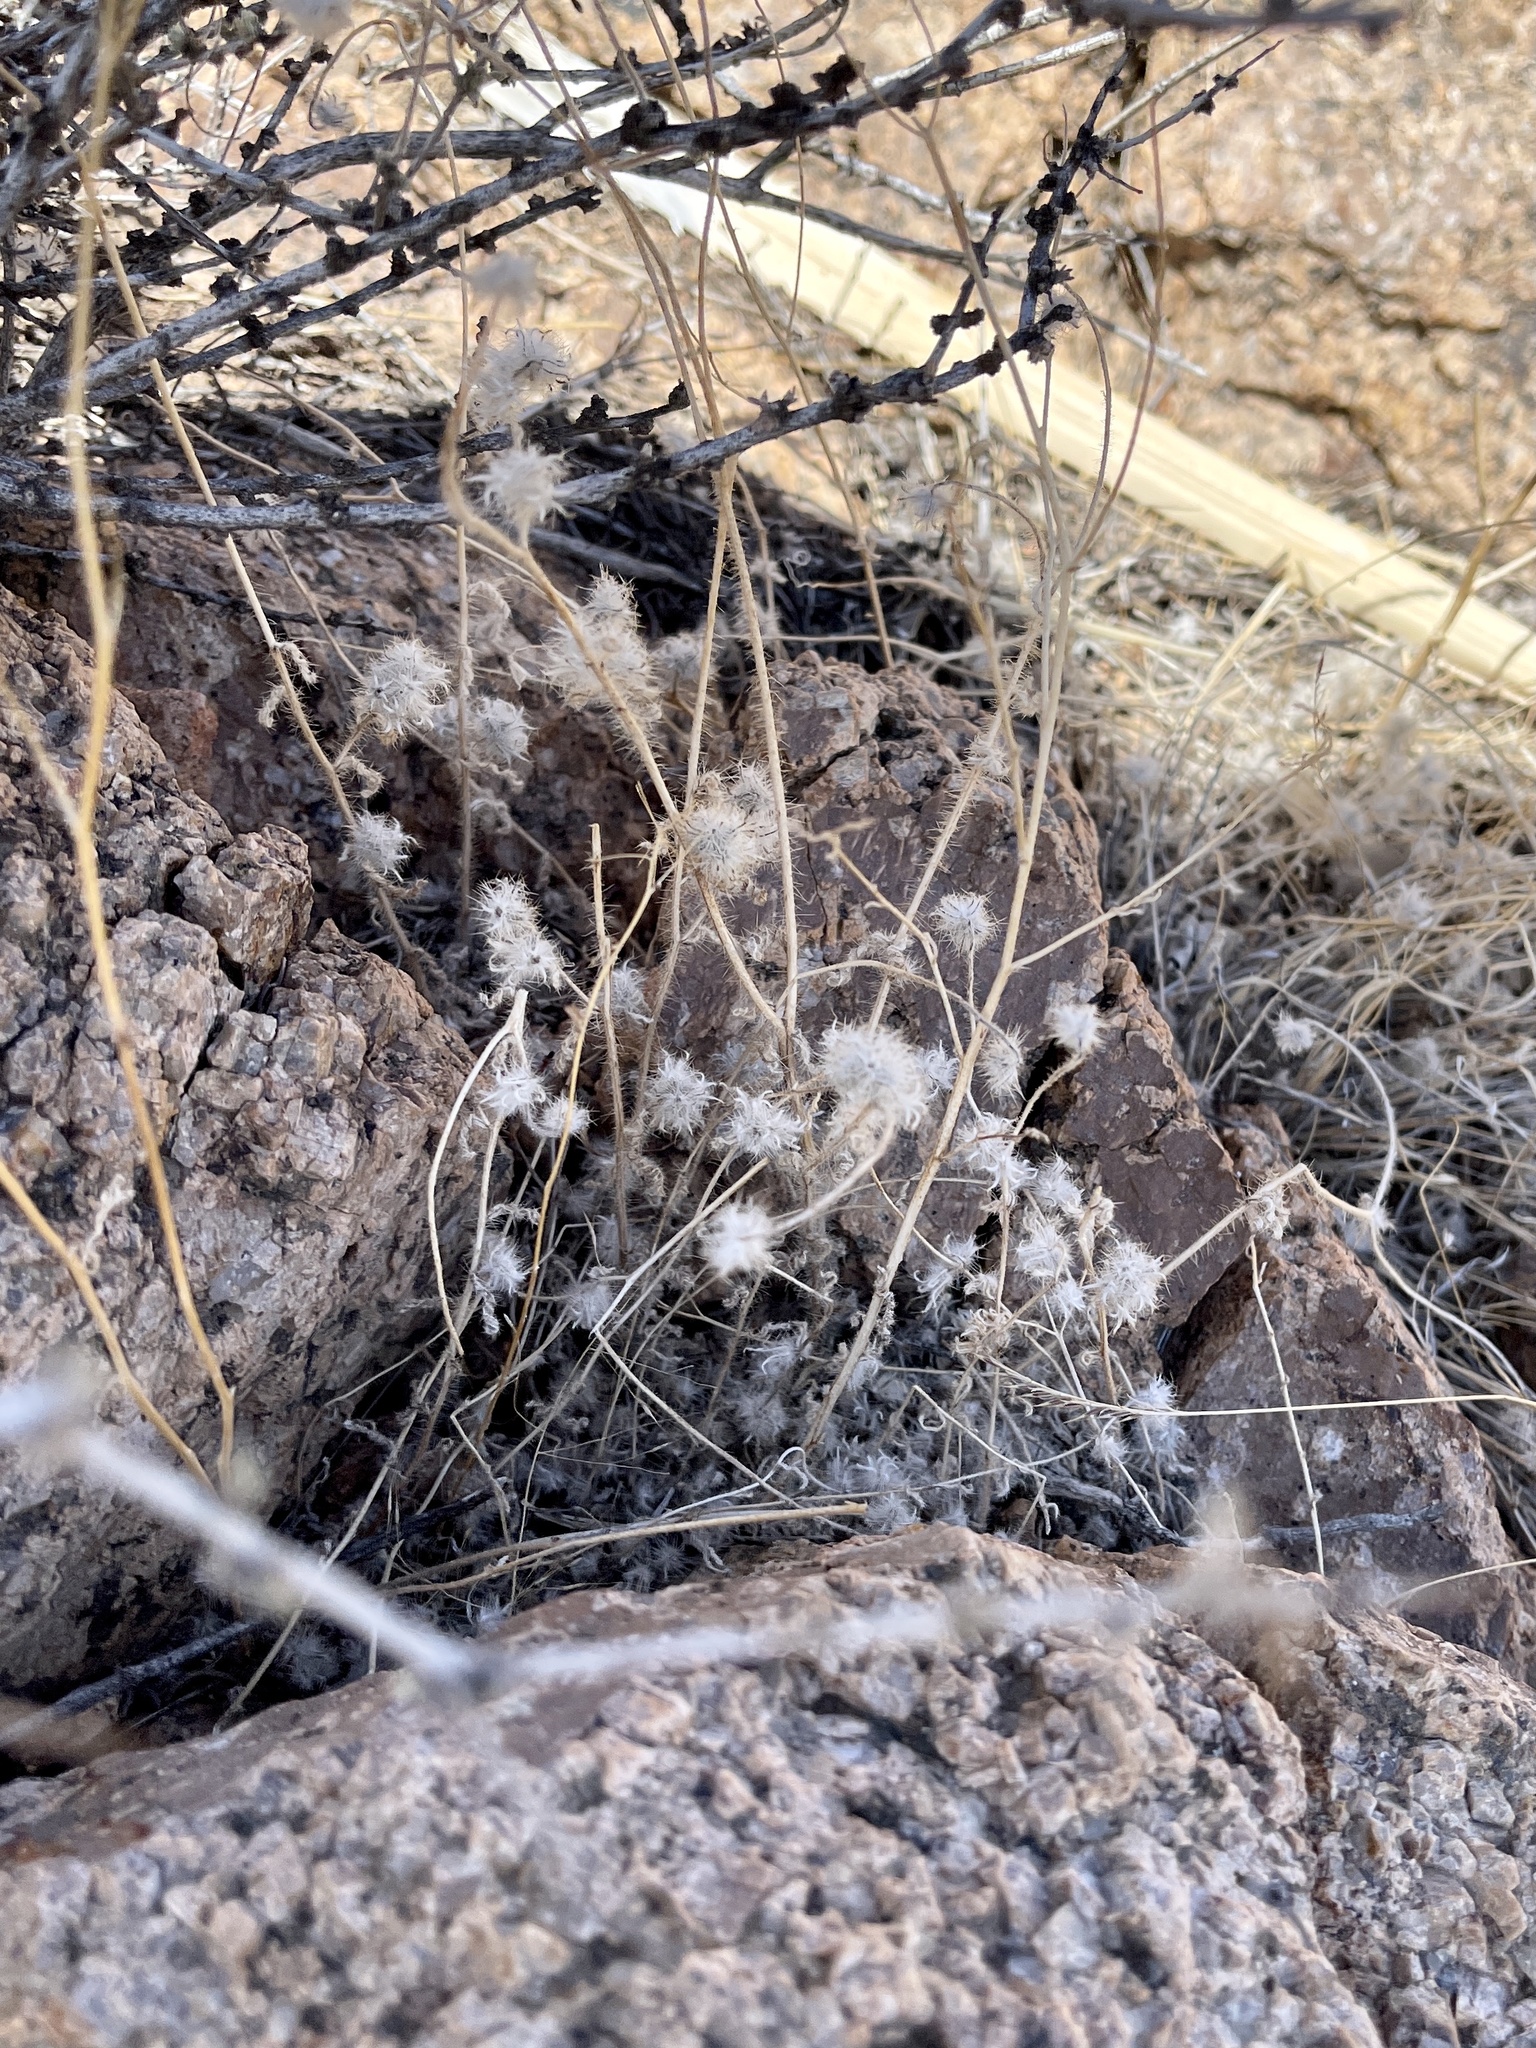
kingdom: Plantae
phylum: Tracheophyta
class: Magnoliopsida
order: Cornales
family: Loasaceae
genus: Cevallia
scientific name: Cevallia sinuata
